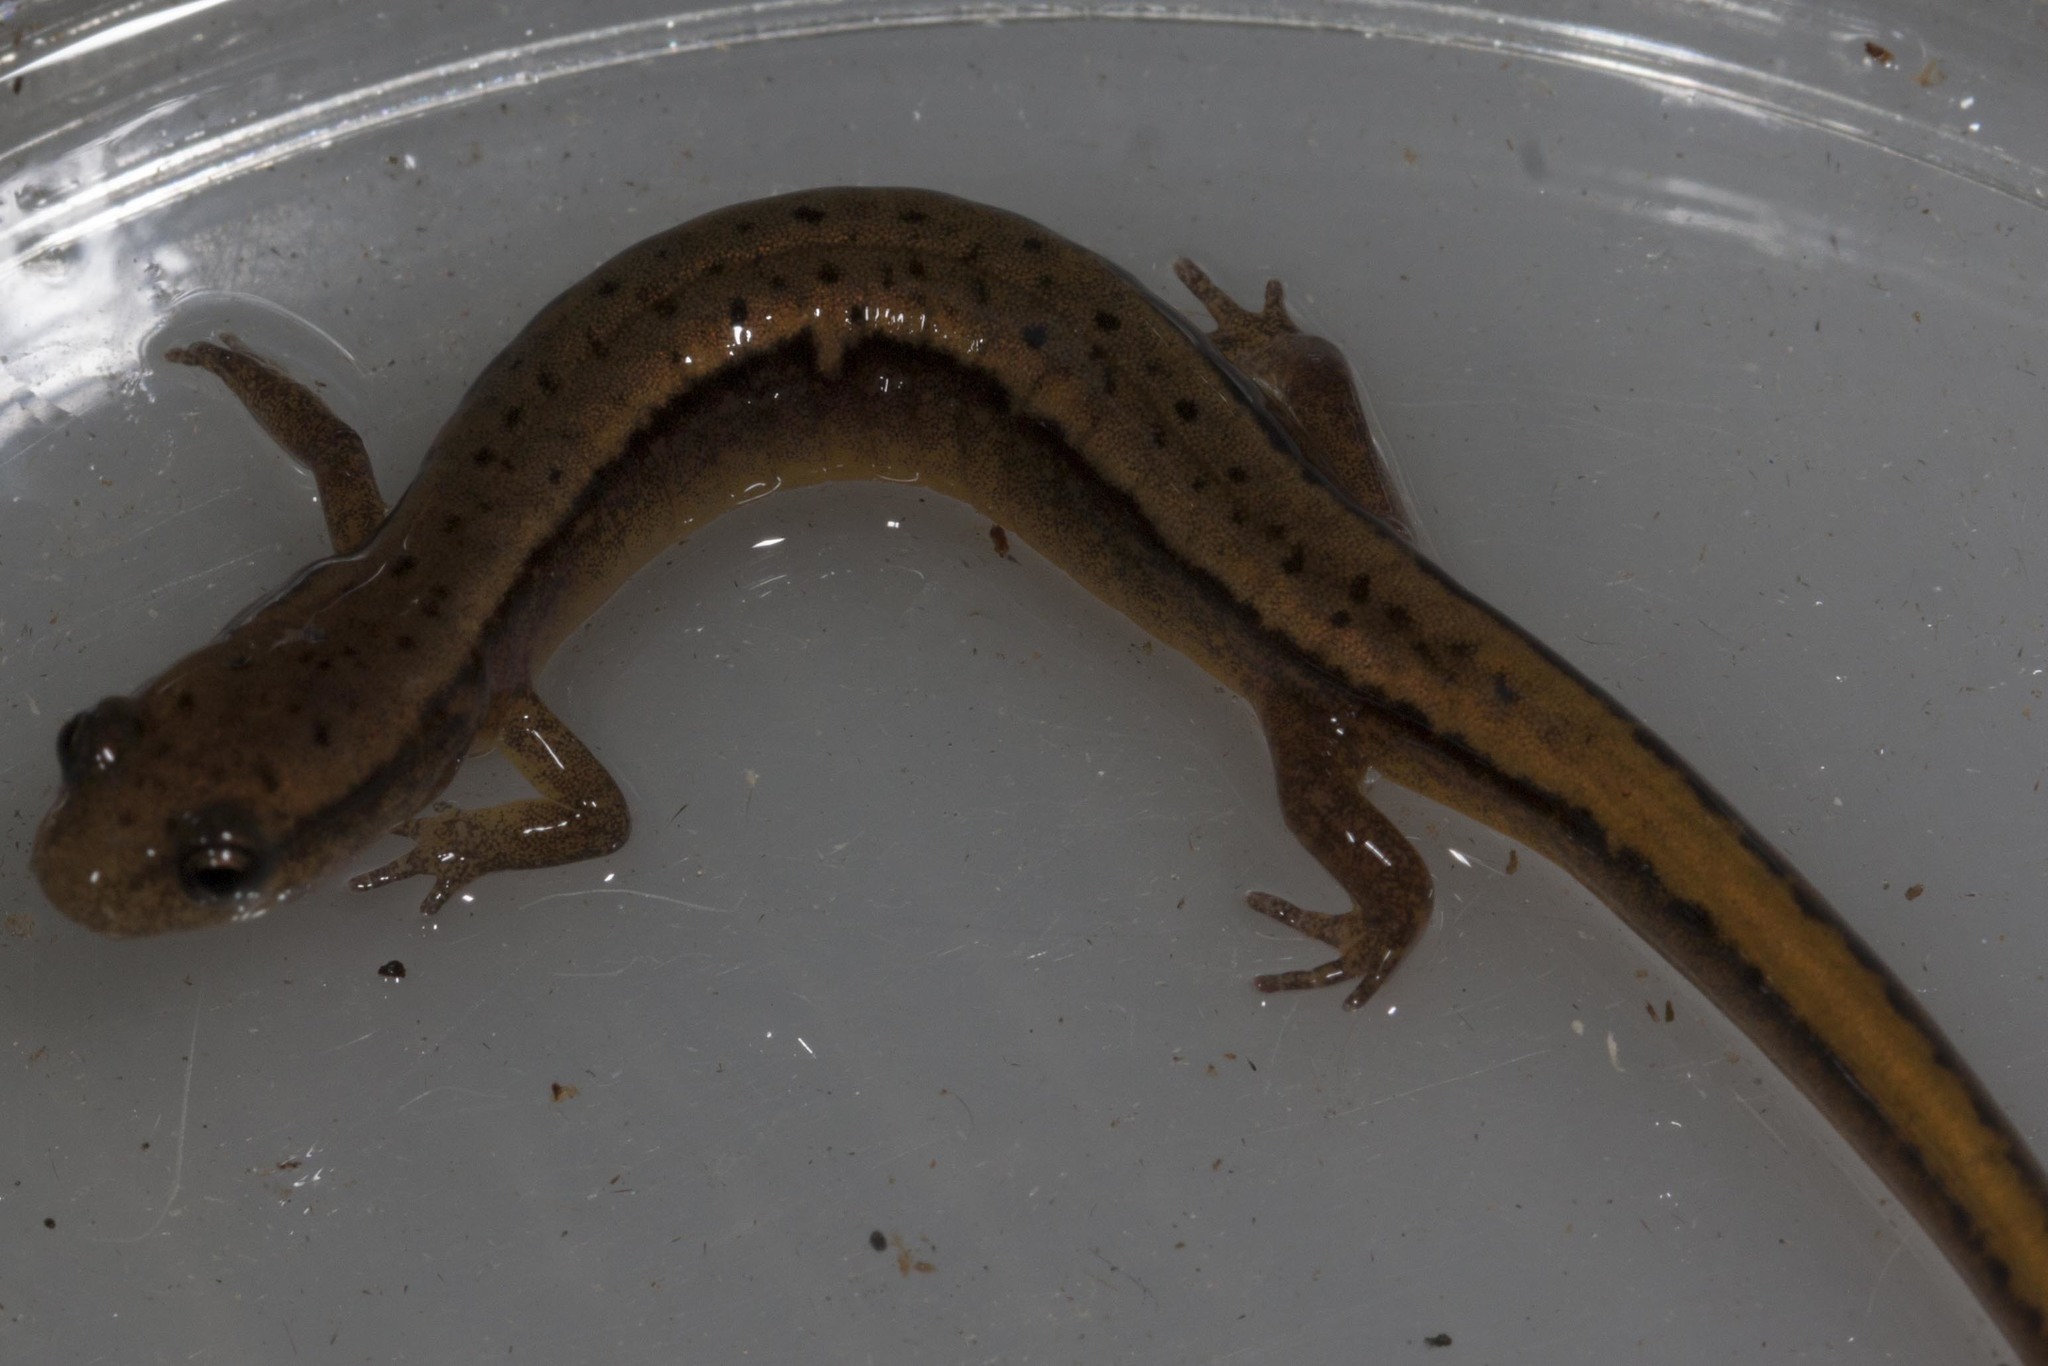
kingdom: Animalia
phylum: Chordata
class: Amphibia
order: Caudata
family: Plethodontidae
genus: Eurycea
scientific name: Eurycea bislineata
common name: Northern two-lined salamander
